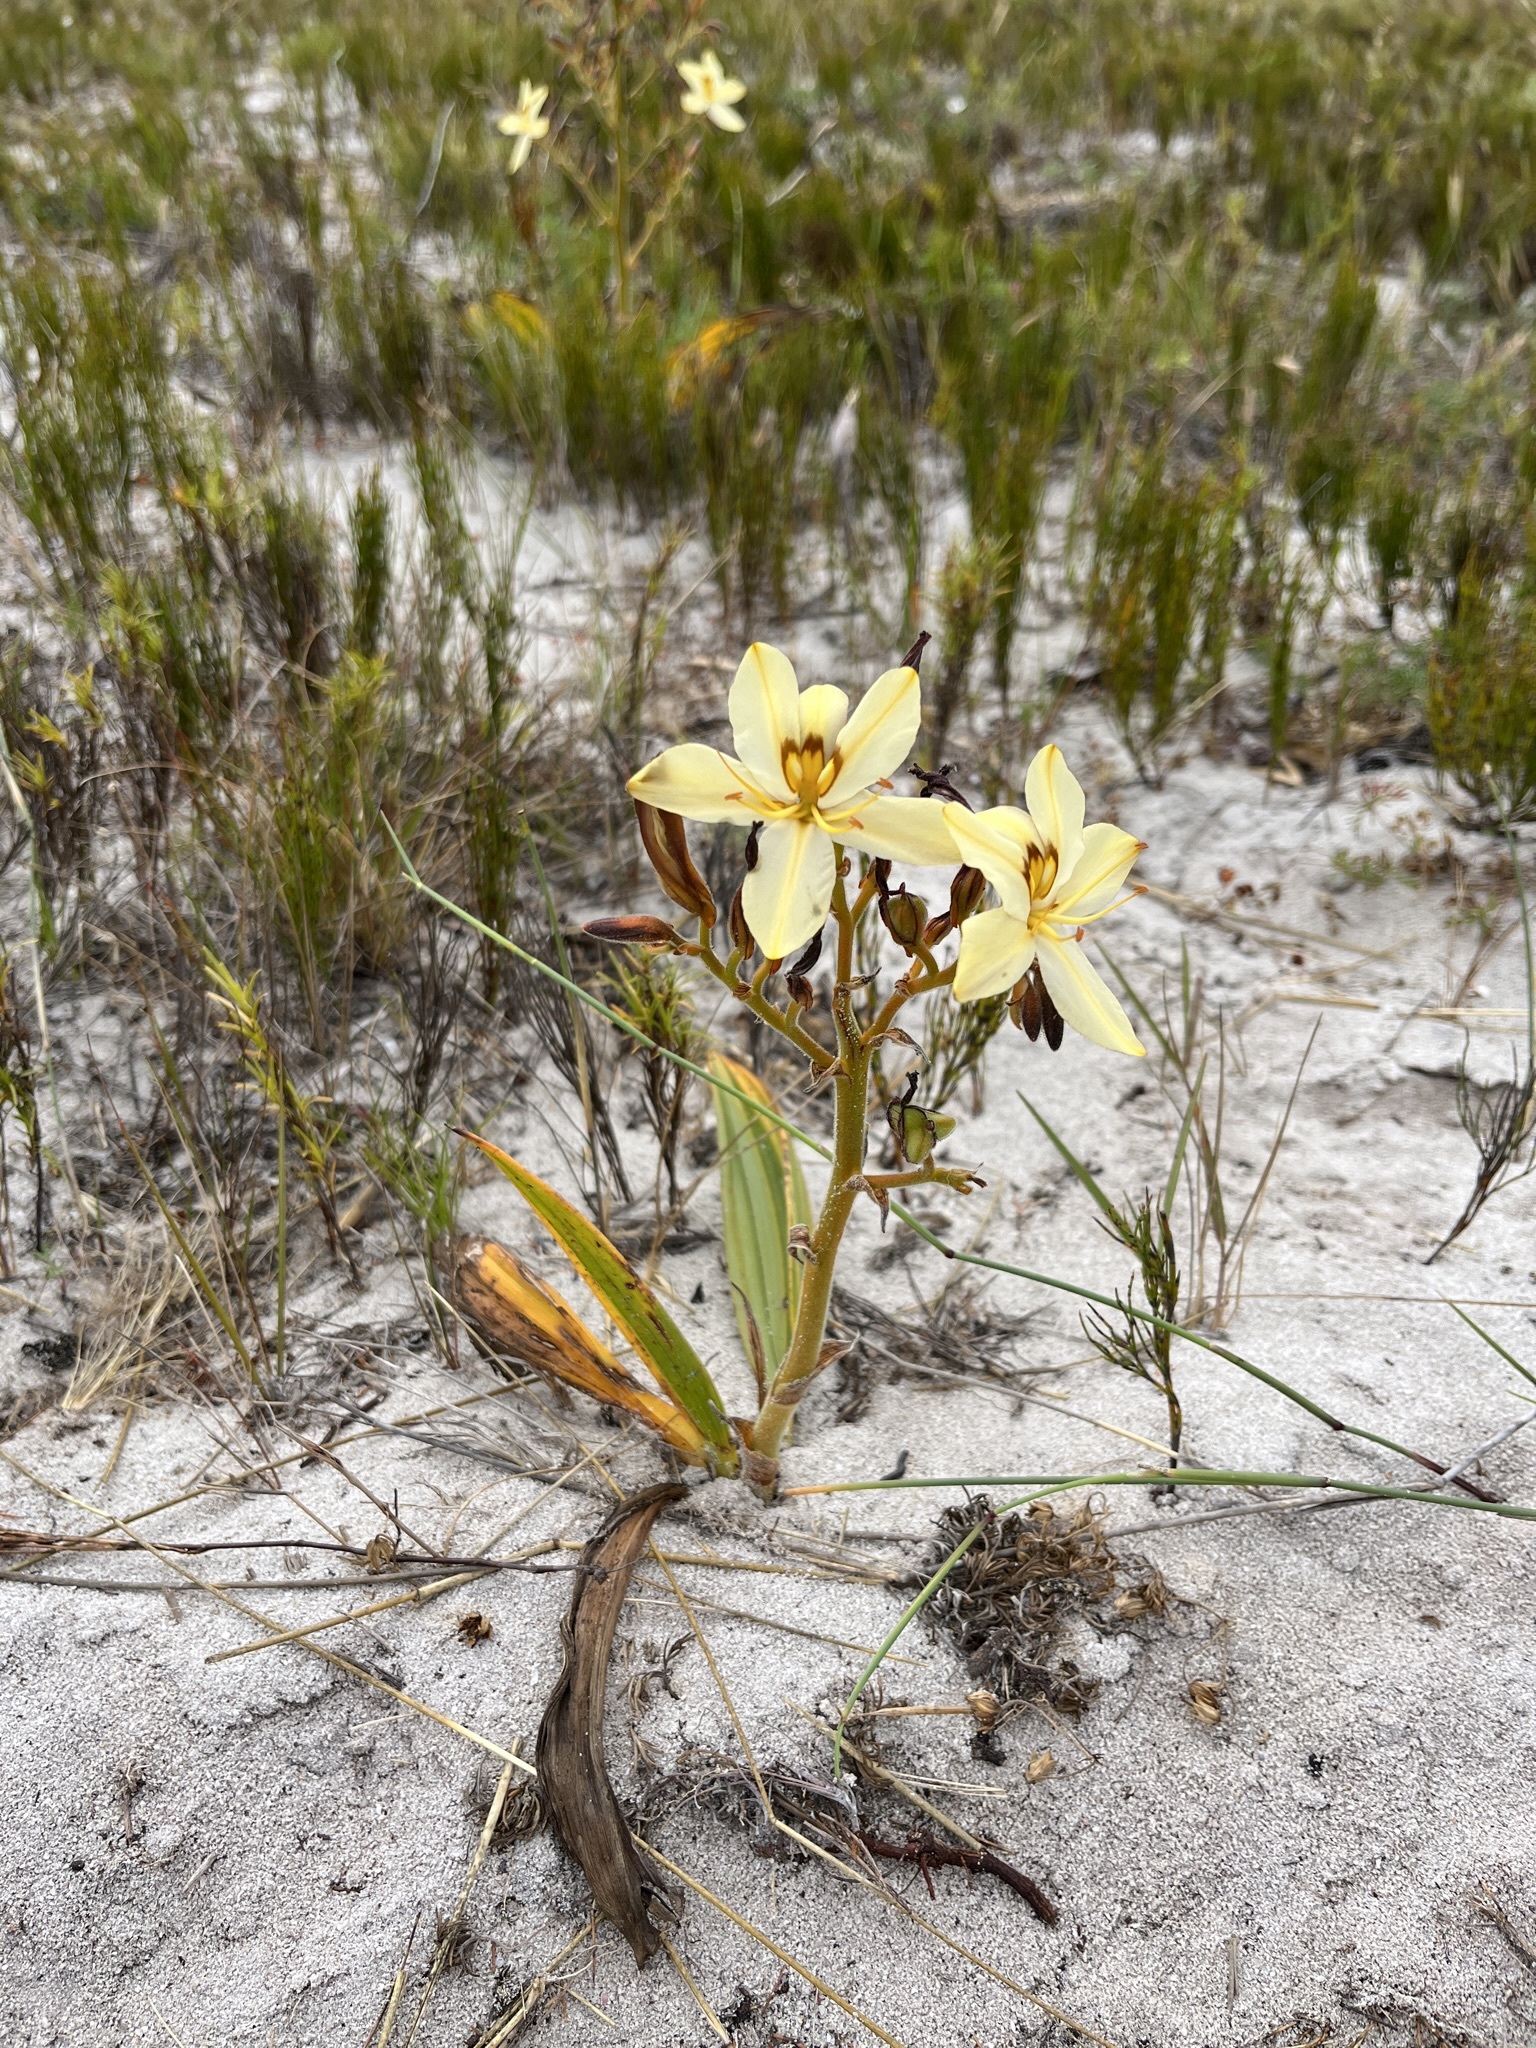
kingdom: Plantae
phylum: Tracheophyta
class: Liliopsida
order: Commelinales
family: Haemodoraceae
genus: Wachendorfia
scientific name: Wachendorfia paniculata
